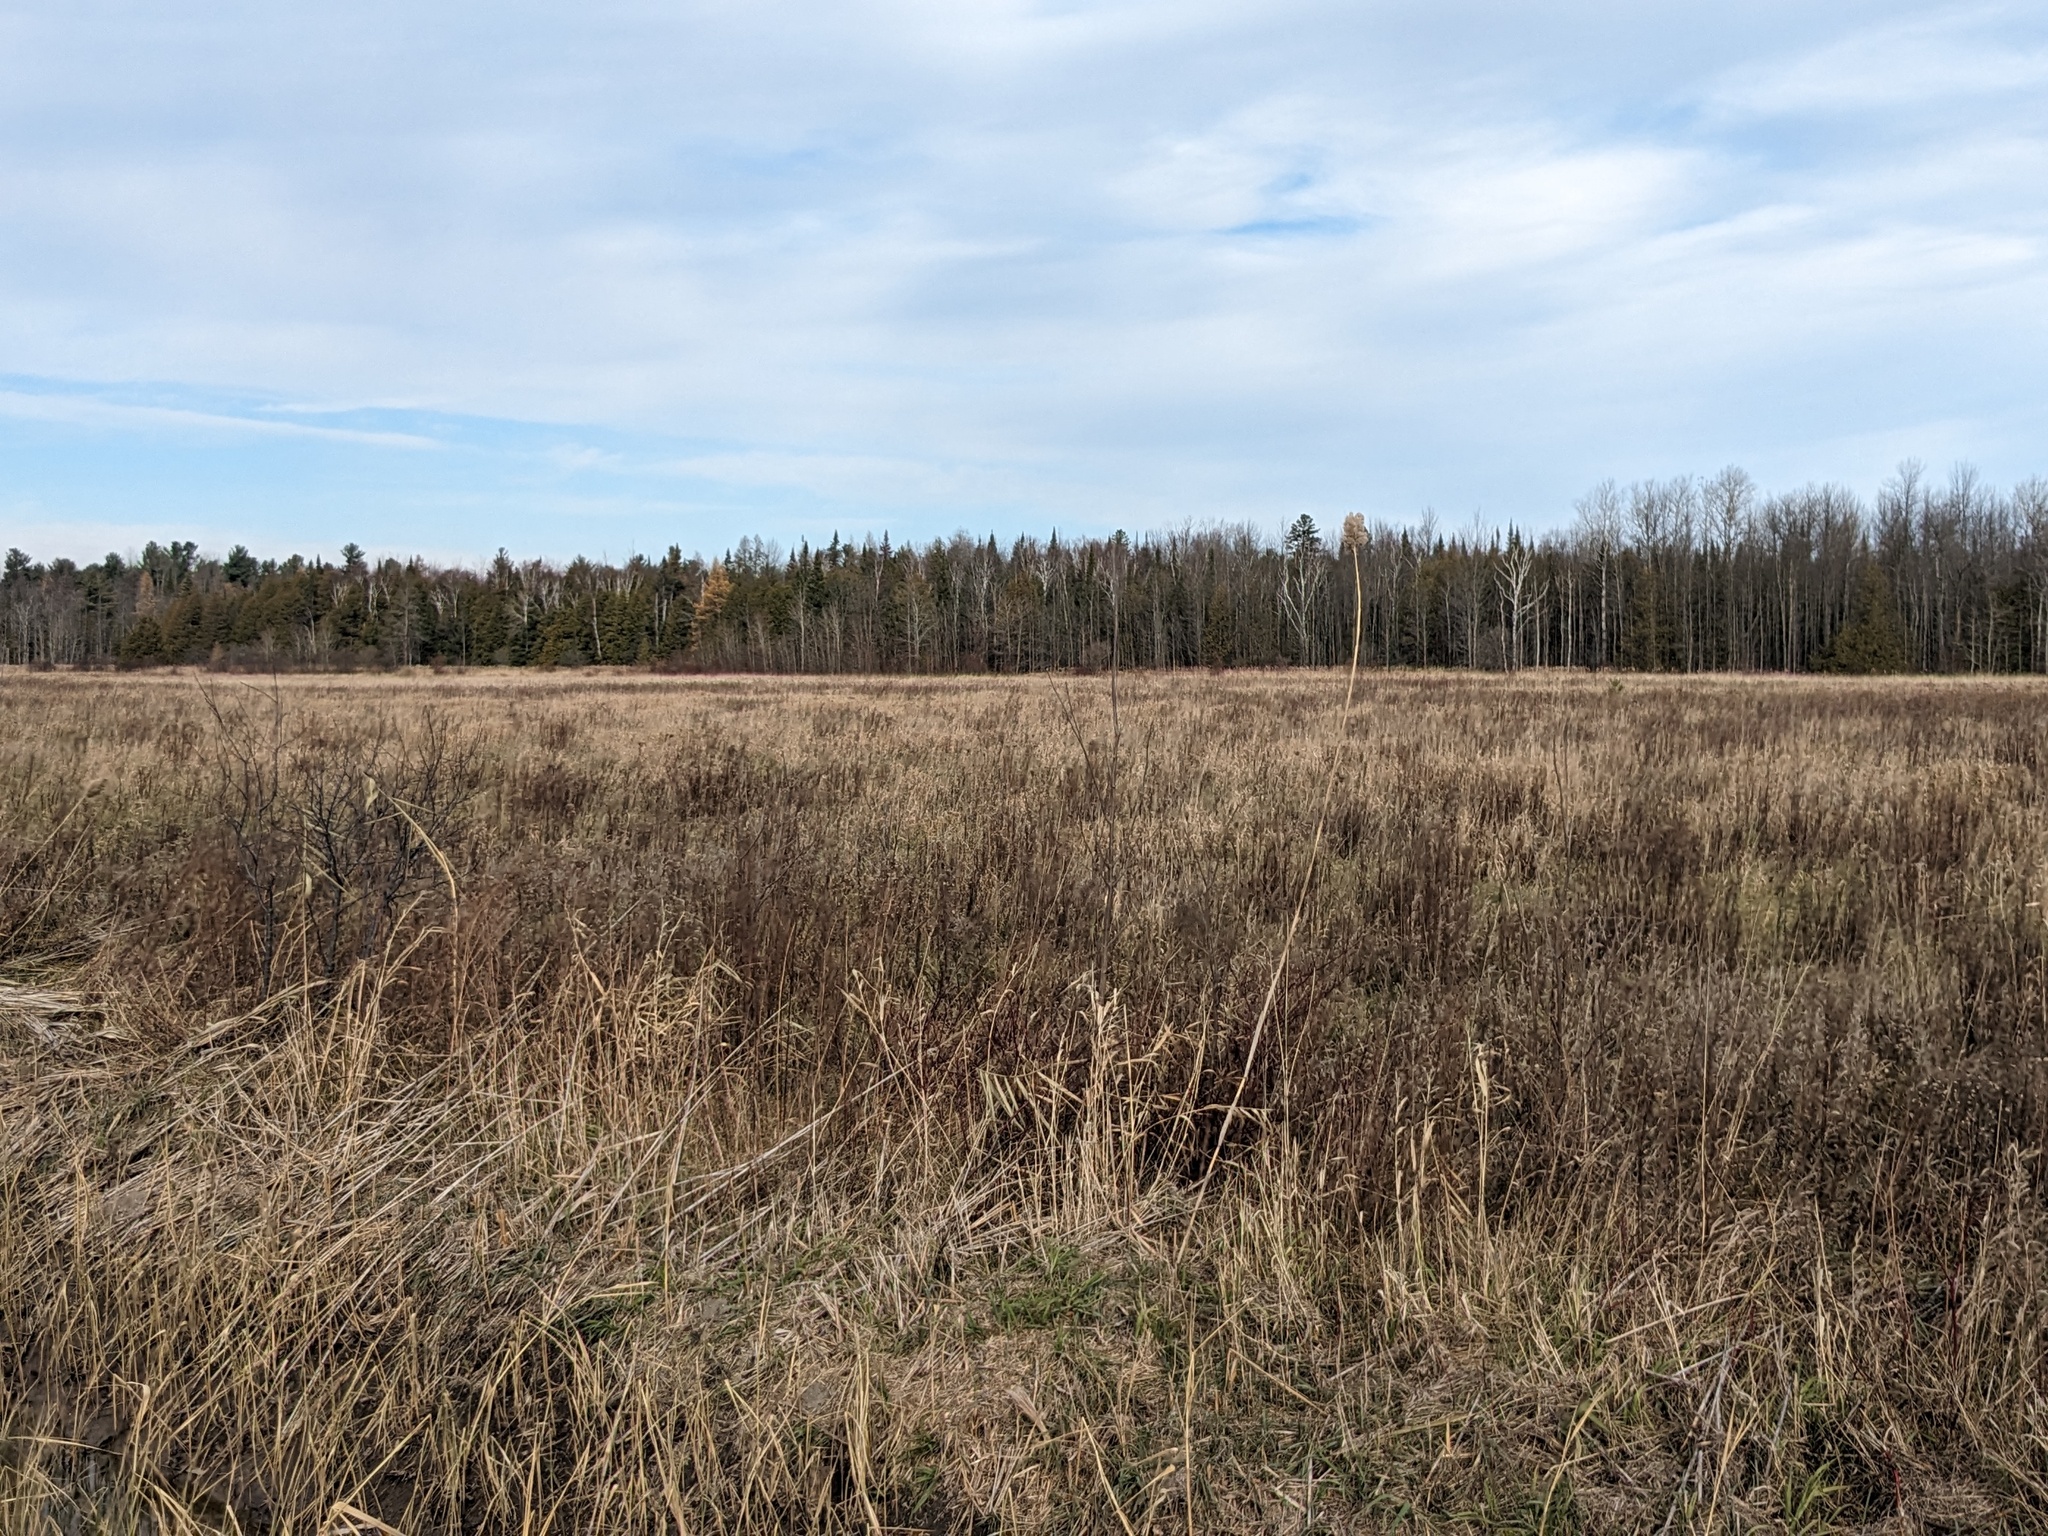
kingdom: Plantae
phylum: Tracheophyta
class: Liliopsida
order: Poales
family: Poaceae
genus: Phragmites
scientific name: Phragmites australis
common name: Common reed
